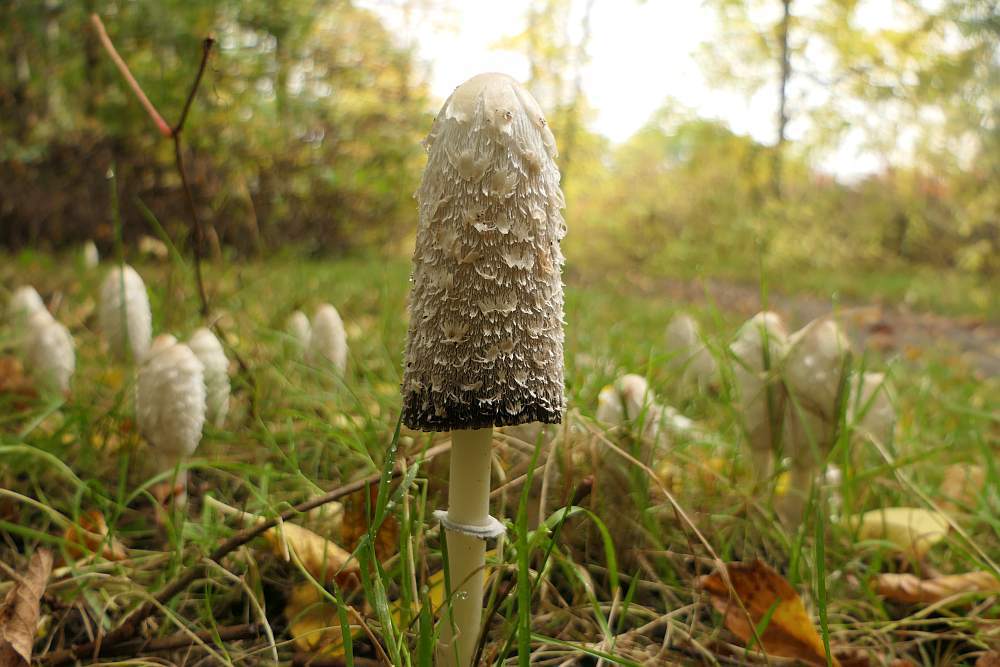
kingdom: Fungi
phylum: Basidiomycota
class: Agaricomycetes
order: Agaricales
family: Agaricaceae
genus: Coprinus
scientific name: Coprinus comatus
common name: Lawyer's wig
